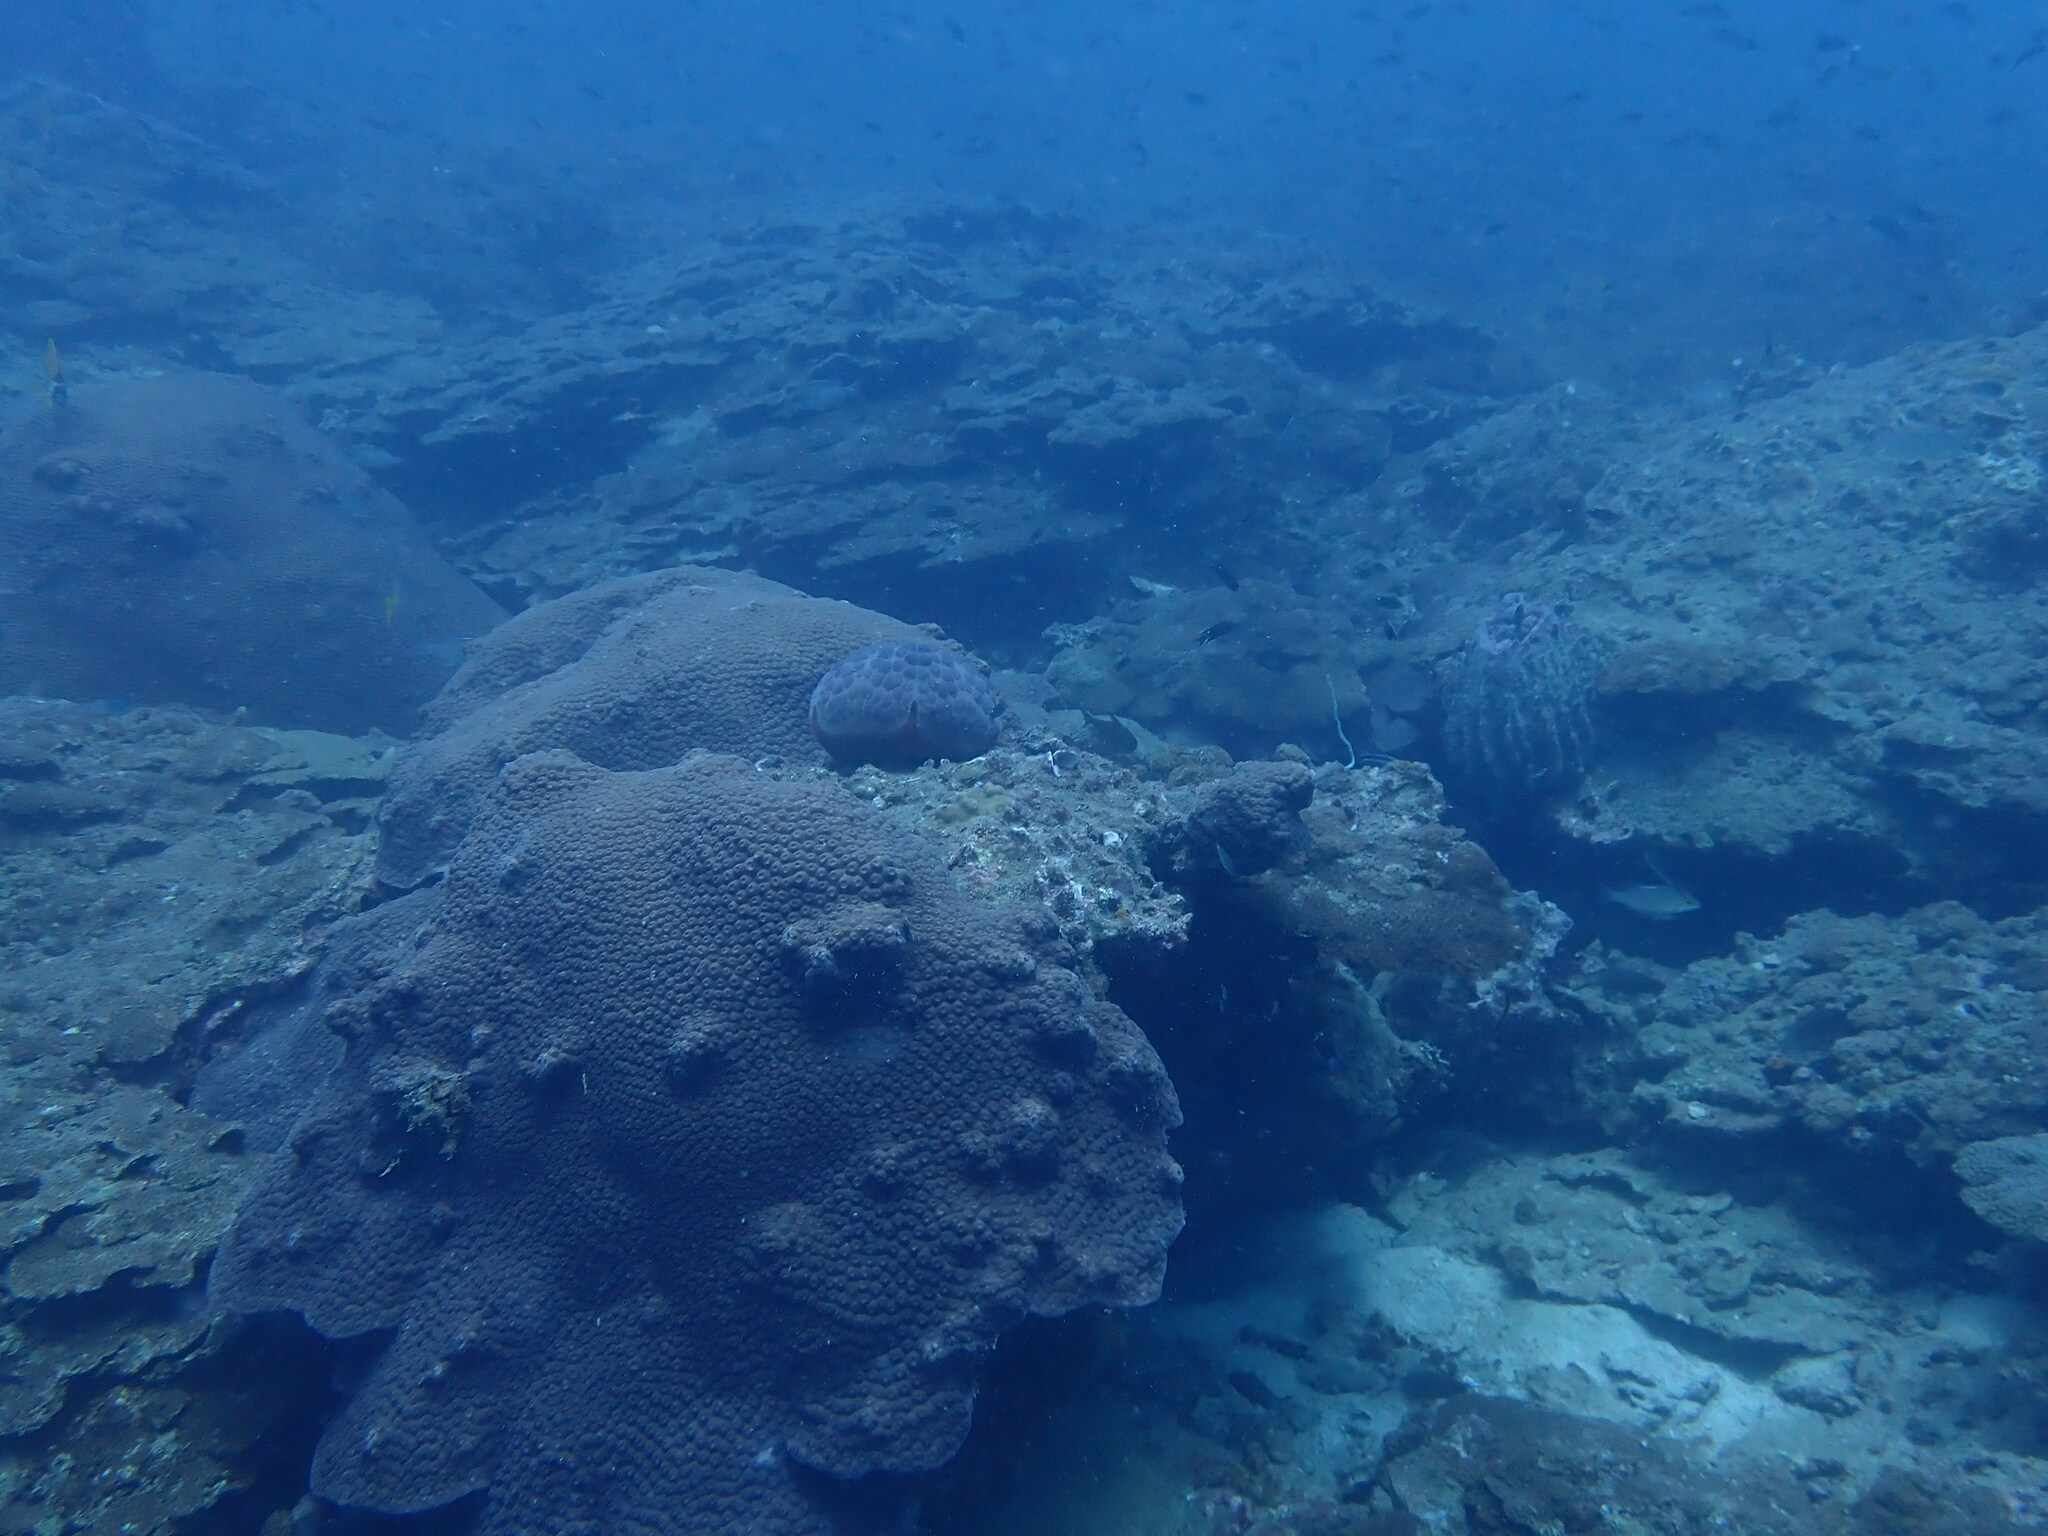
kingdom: Animalia
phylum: Cnidaria
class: Anthozoa
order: Scleractinia
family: Diploastraeidae
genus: Diploastrea
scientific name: Diploastrea heliopora
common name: Double-star coral
